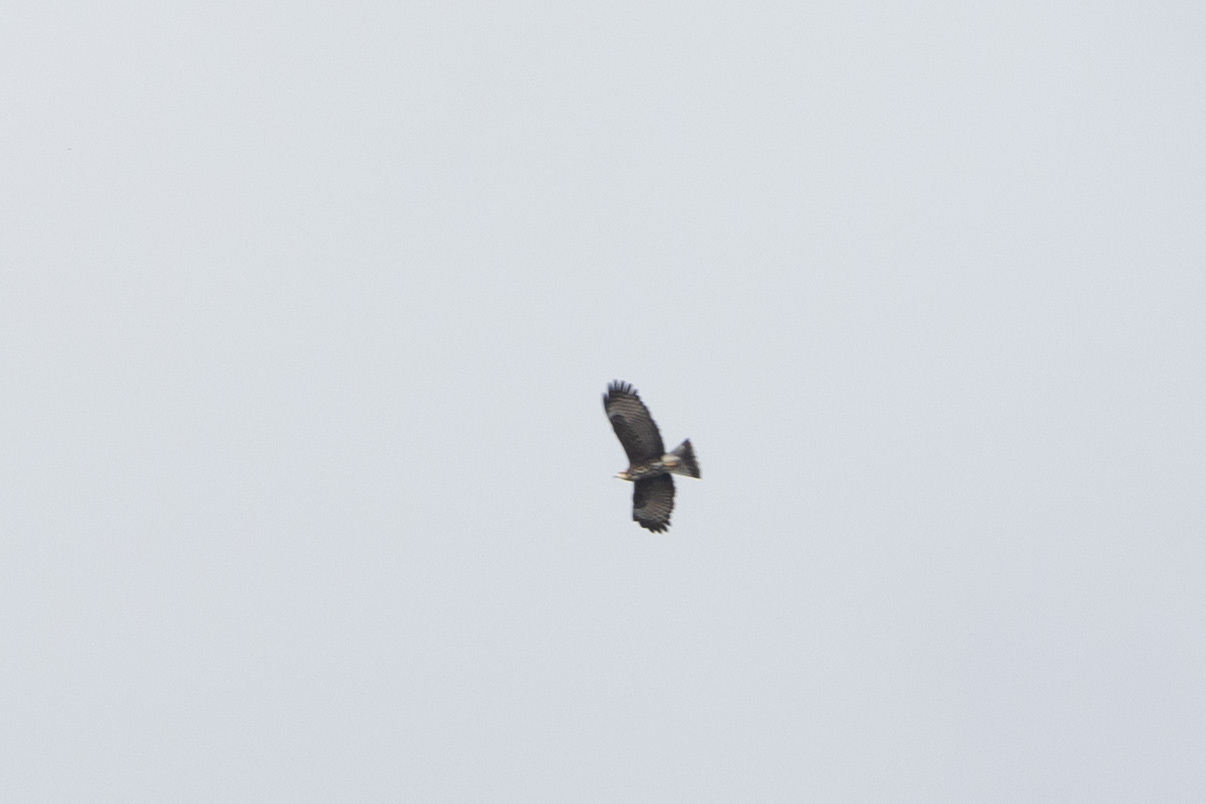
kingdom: Animalia
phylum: Chordata
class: Aves
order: Accipitriformes
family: Accipitridae
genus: Rostrhamus
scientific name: Rostrhamus sociabilis
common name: Snail kite
